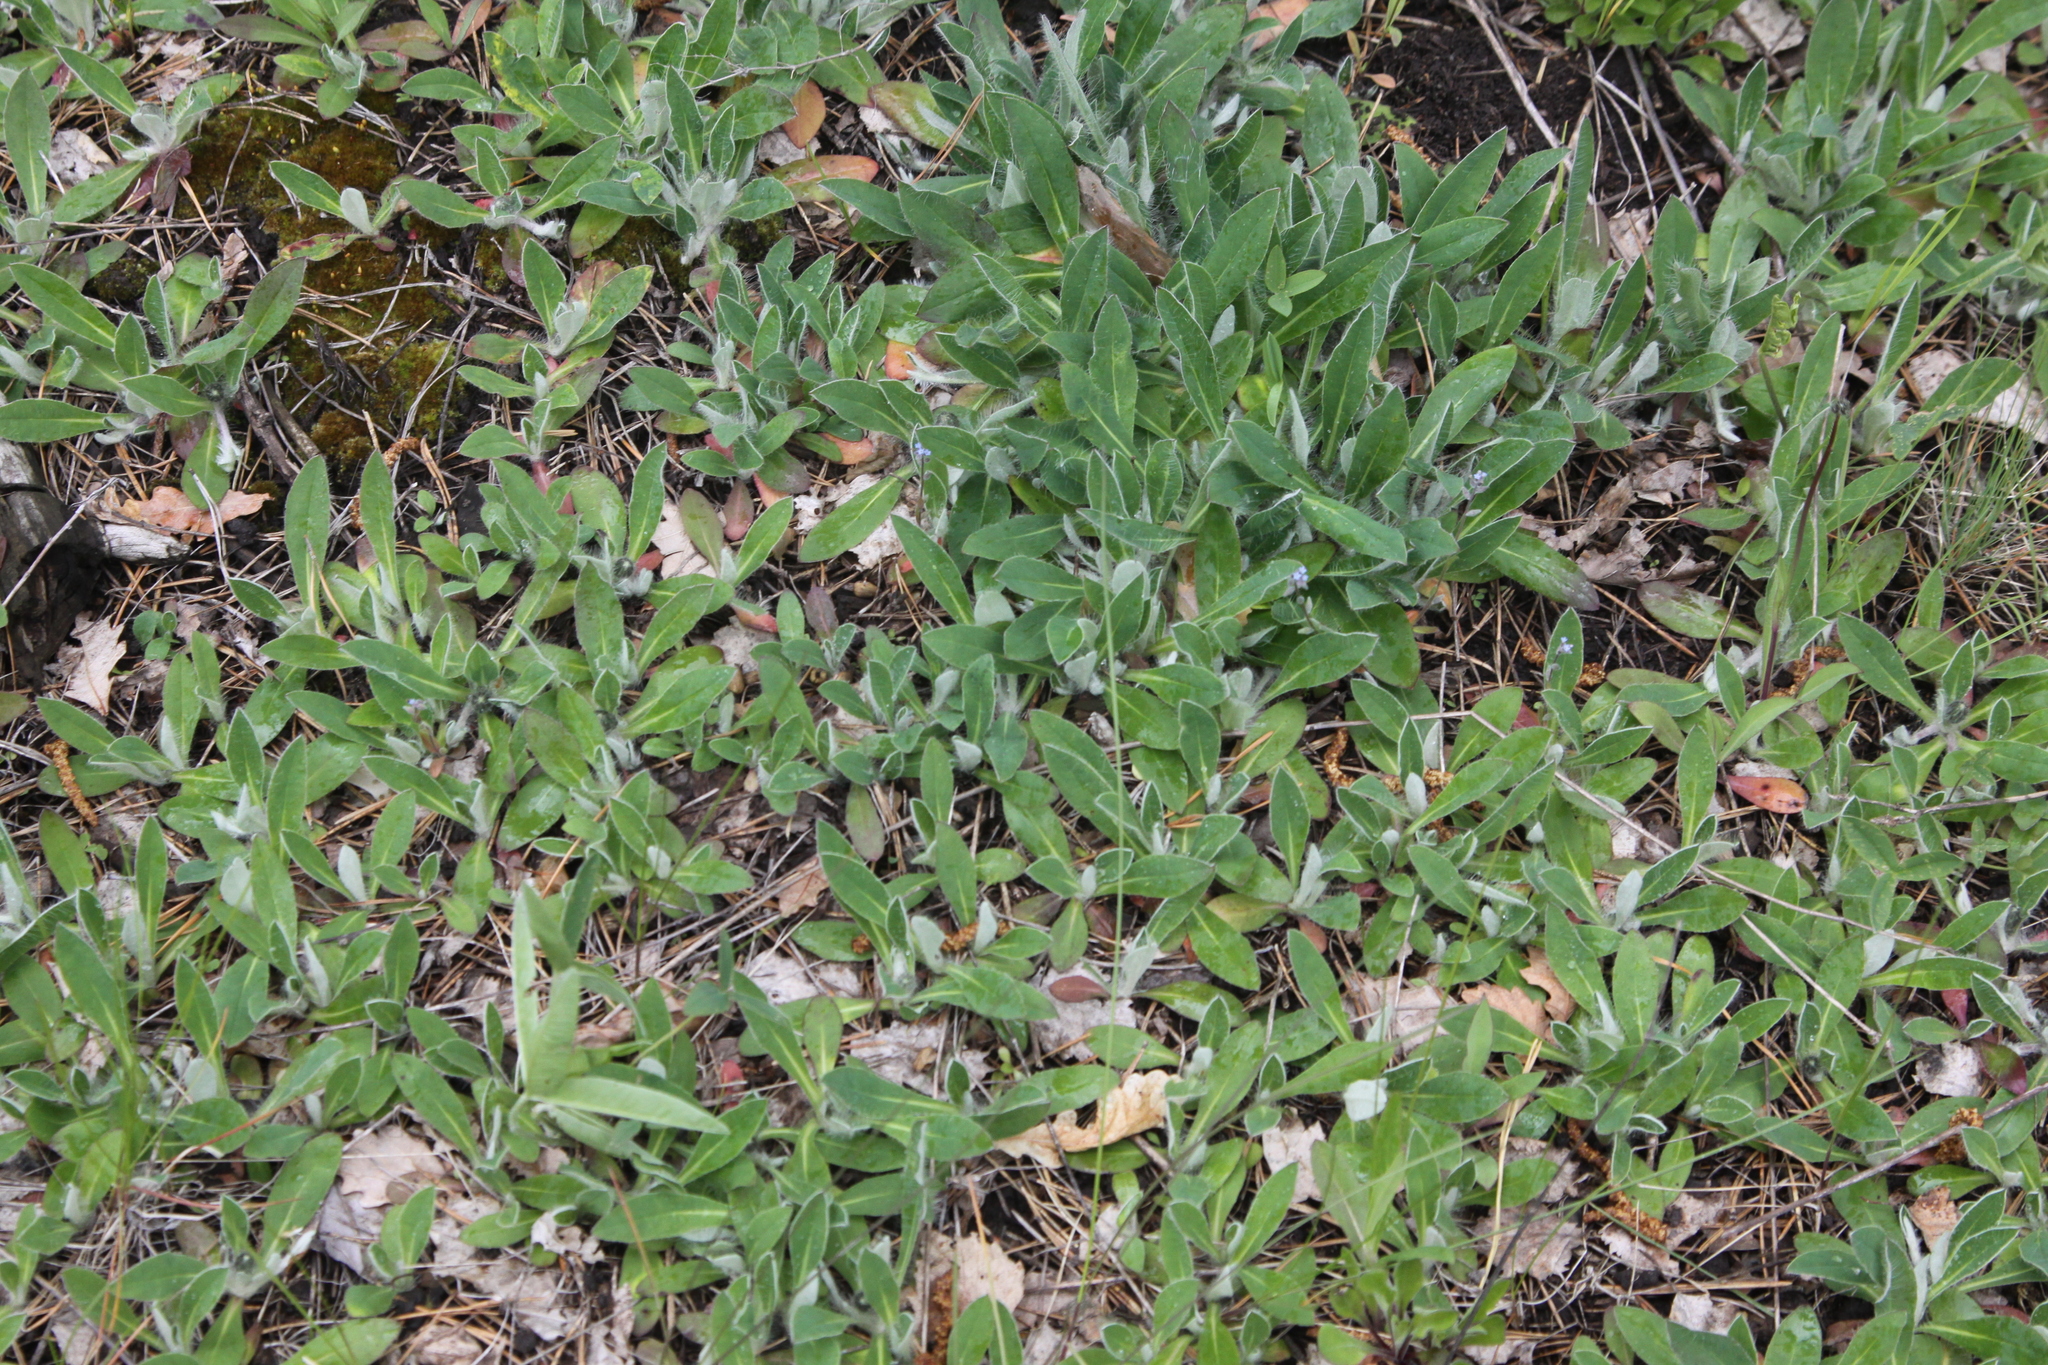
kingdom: Plantae
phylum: Tracheophyta
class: Magnoliopsida
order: Asterales
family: Asteraceae
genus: Pilosella
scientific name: Pilosella officinarum
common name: Mouse-ear hawkweed
